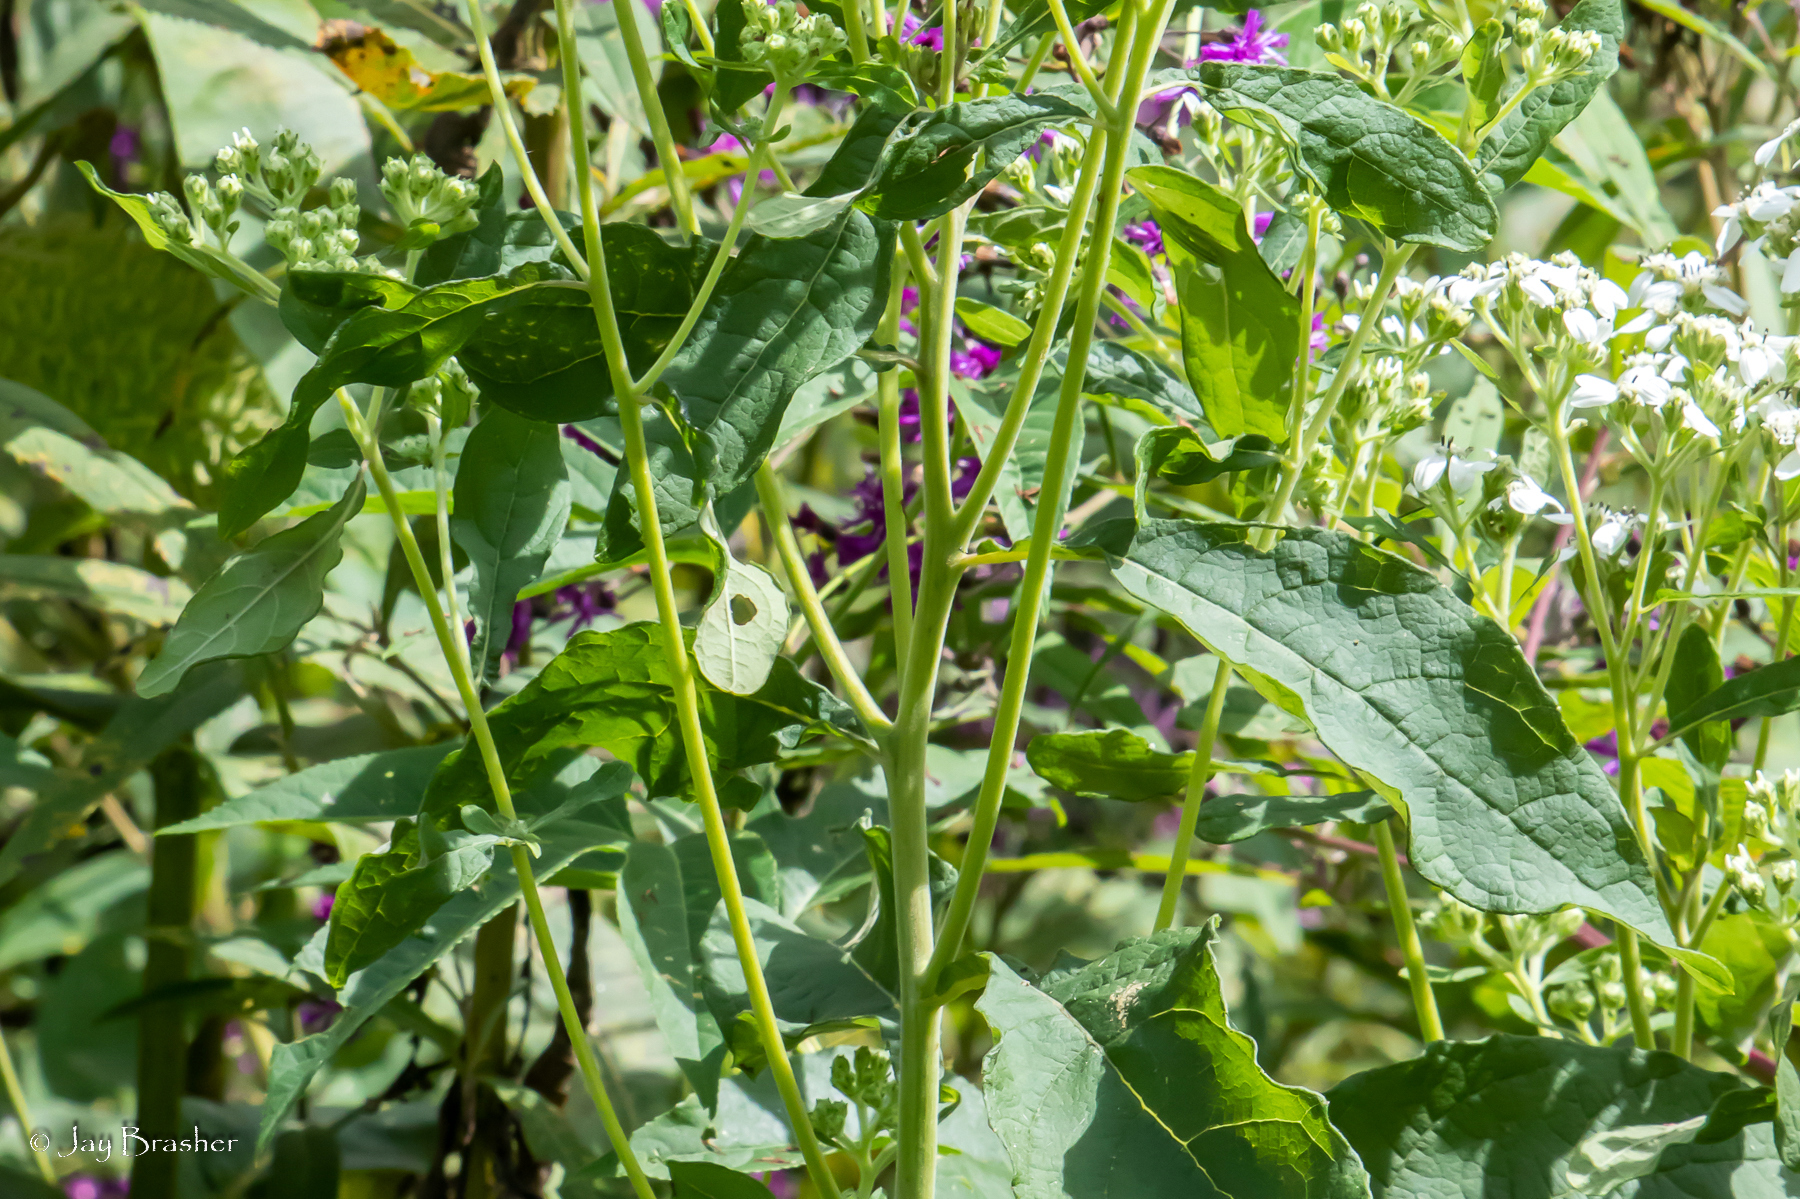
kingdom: Plantae
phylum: Tracheophyta
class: Magnoliopsida
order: Asterales
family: Asteraceae
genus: Verbesina
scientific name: Verbesina virginica
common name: Frostweed
